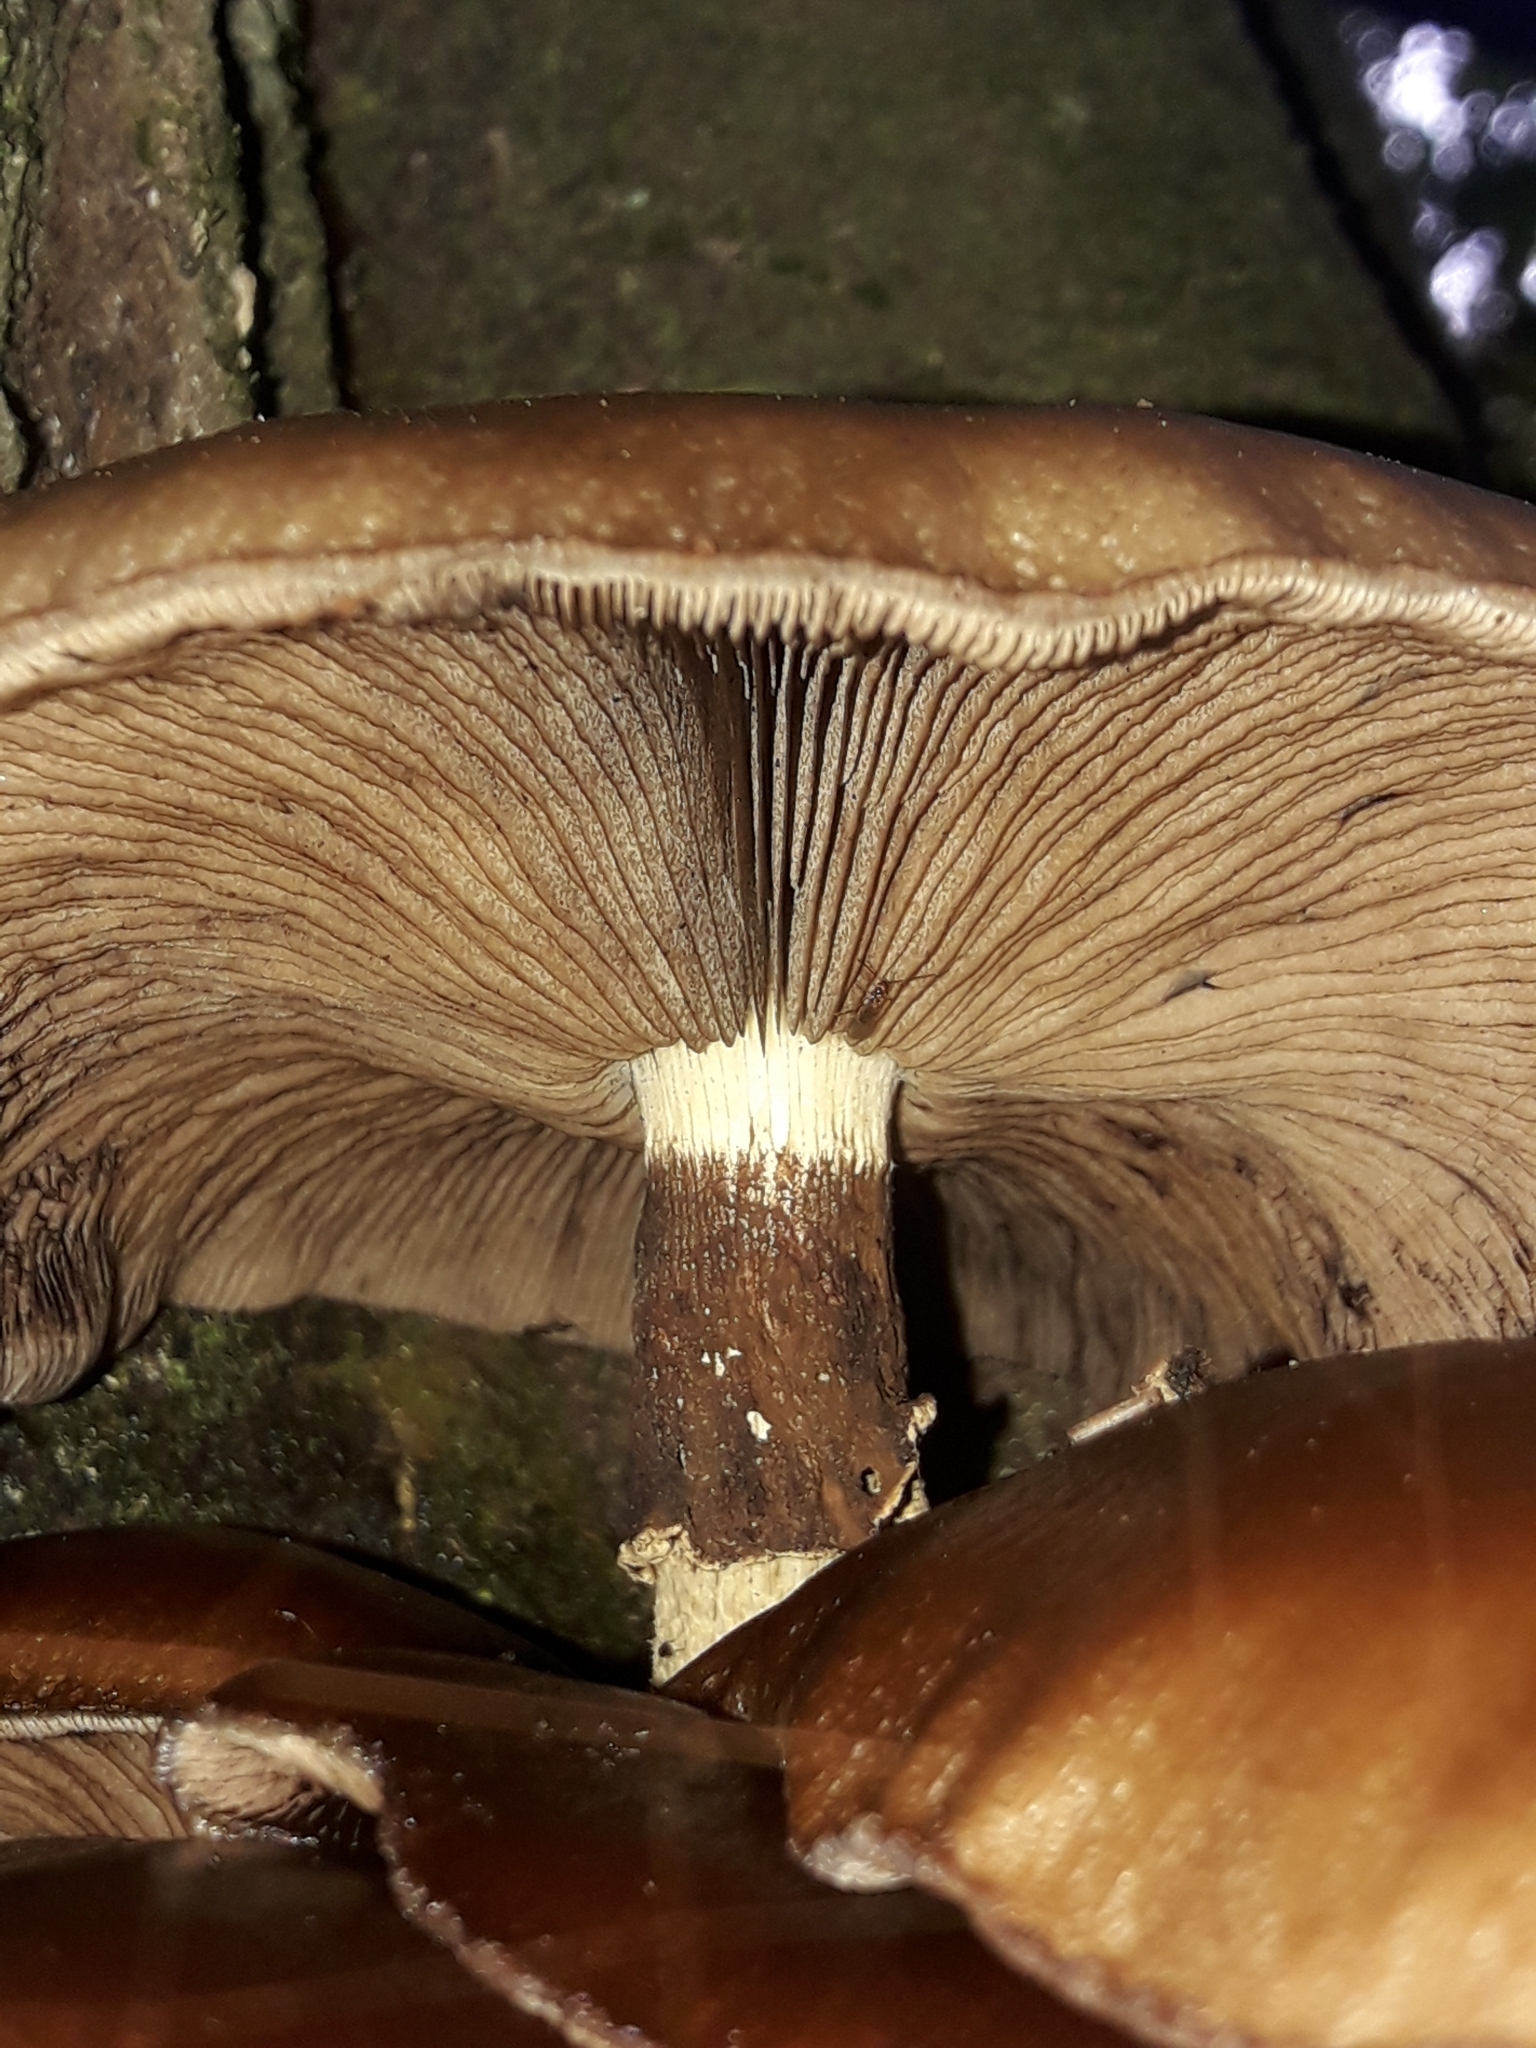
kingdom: Fungi
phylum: Basidiomycota
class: Agaricomycetes
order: Agaricales
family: Tubariaceae
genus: Cyclocybe
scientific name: Cyclocybe parasitica
